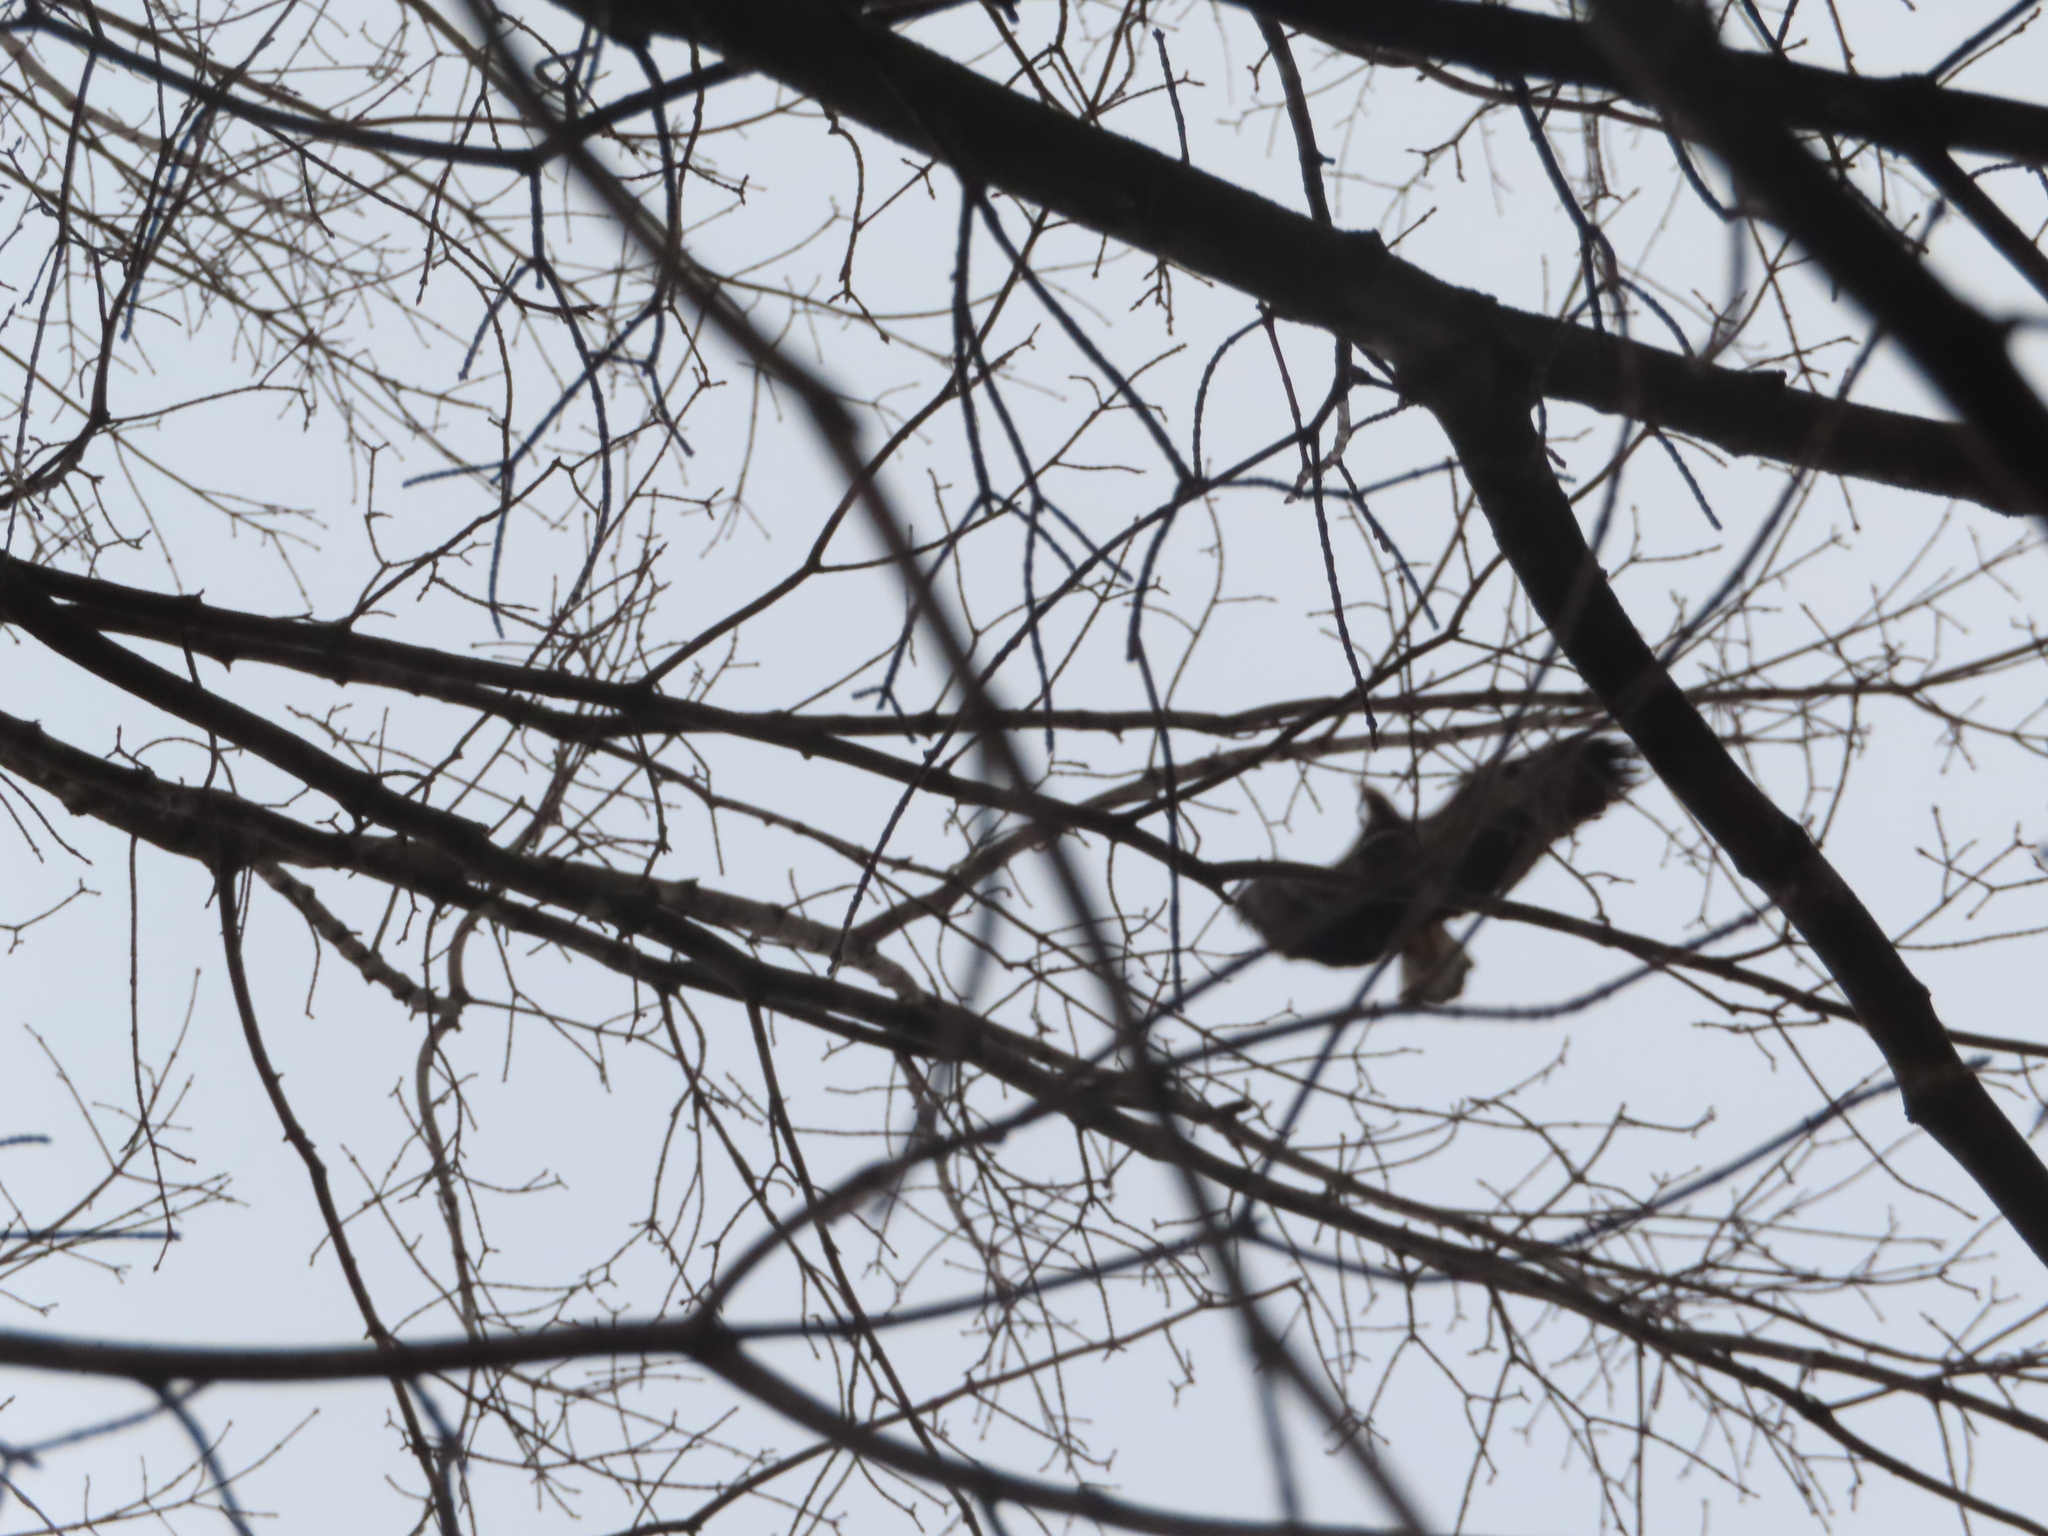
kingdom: Animalia
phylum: Chordata
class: Aves
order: Accipitriformes
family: Accipitridae
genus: Haliaeetus
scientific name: Haliaeetus leucocephalus
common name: Bald eagle
